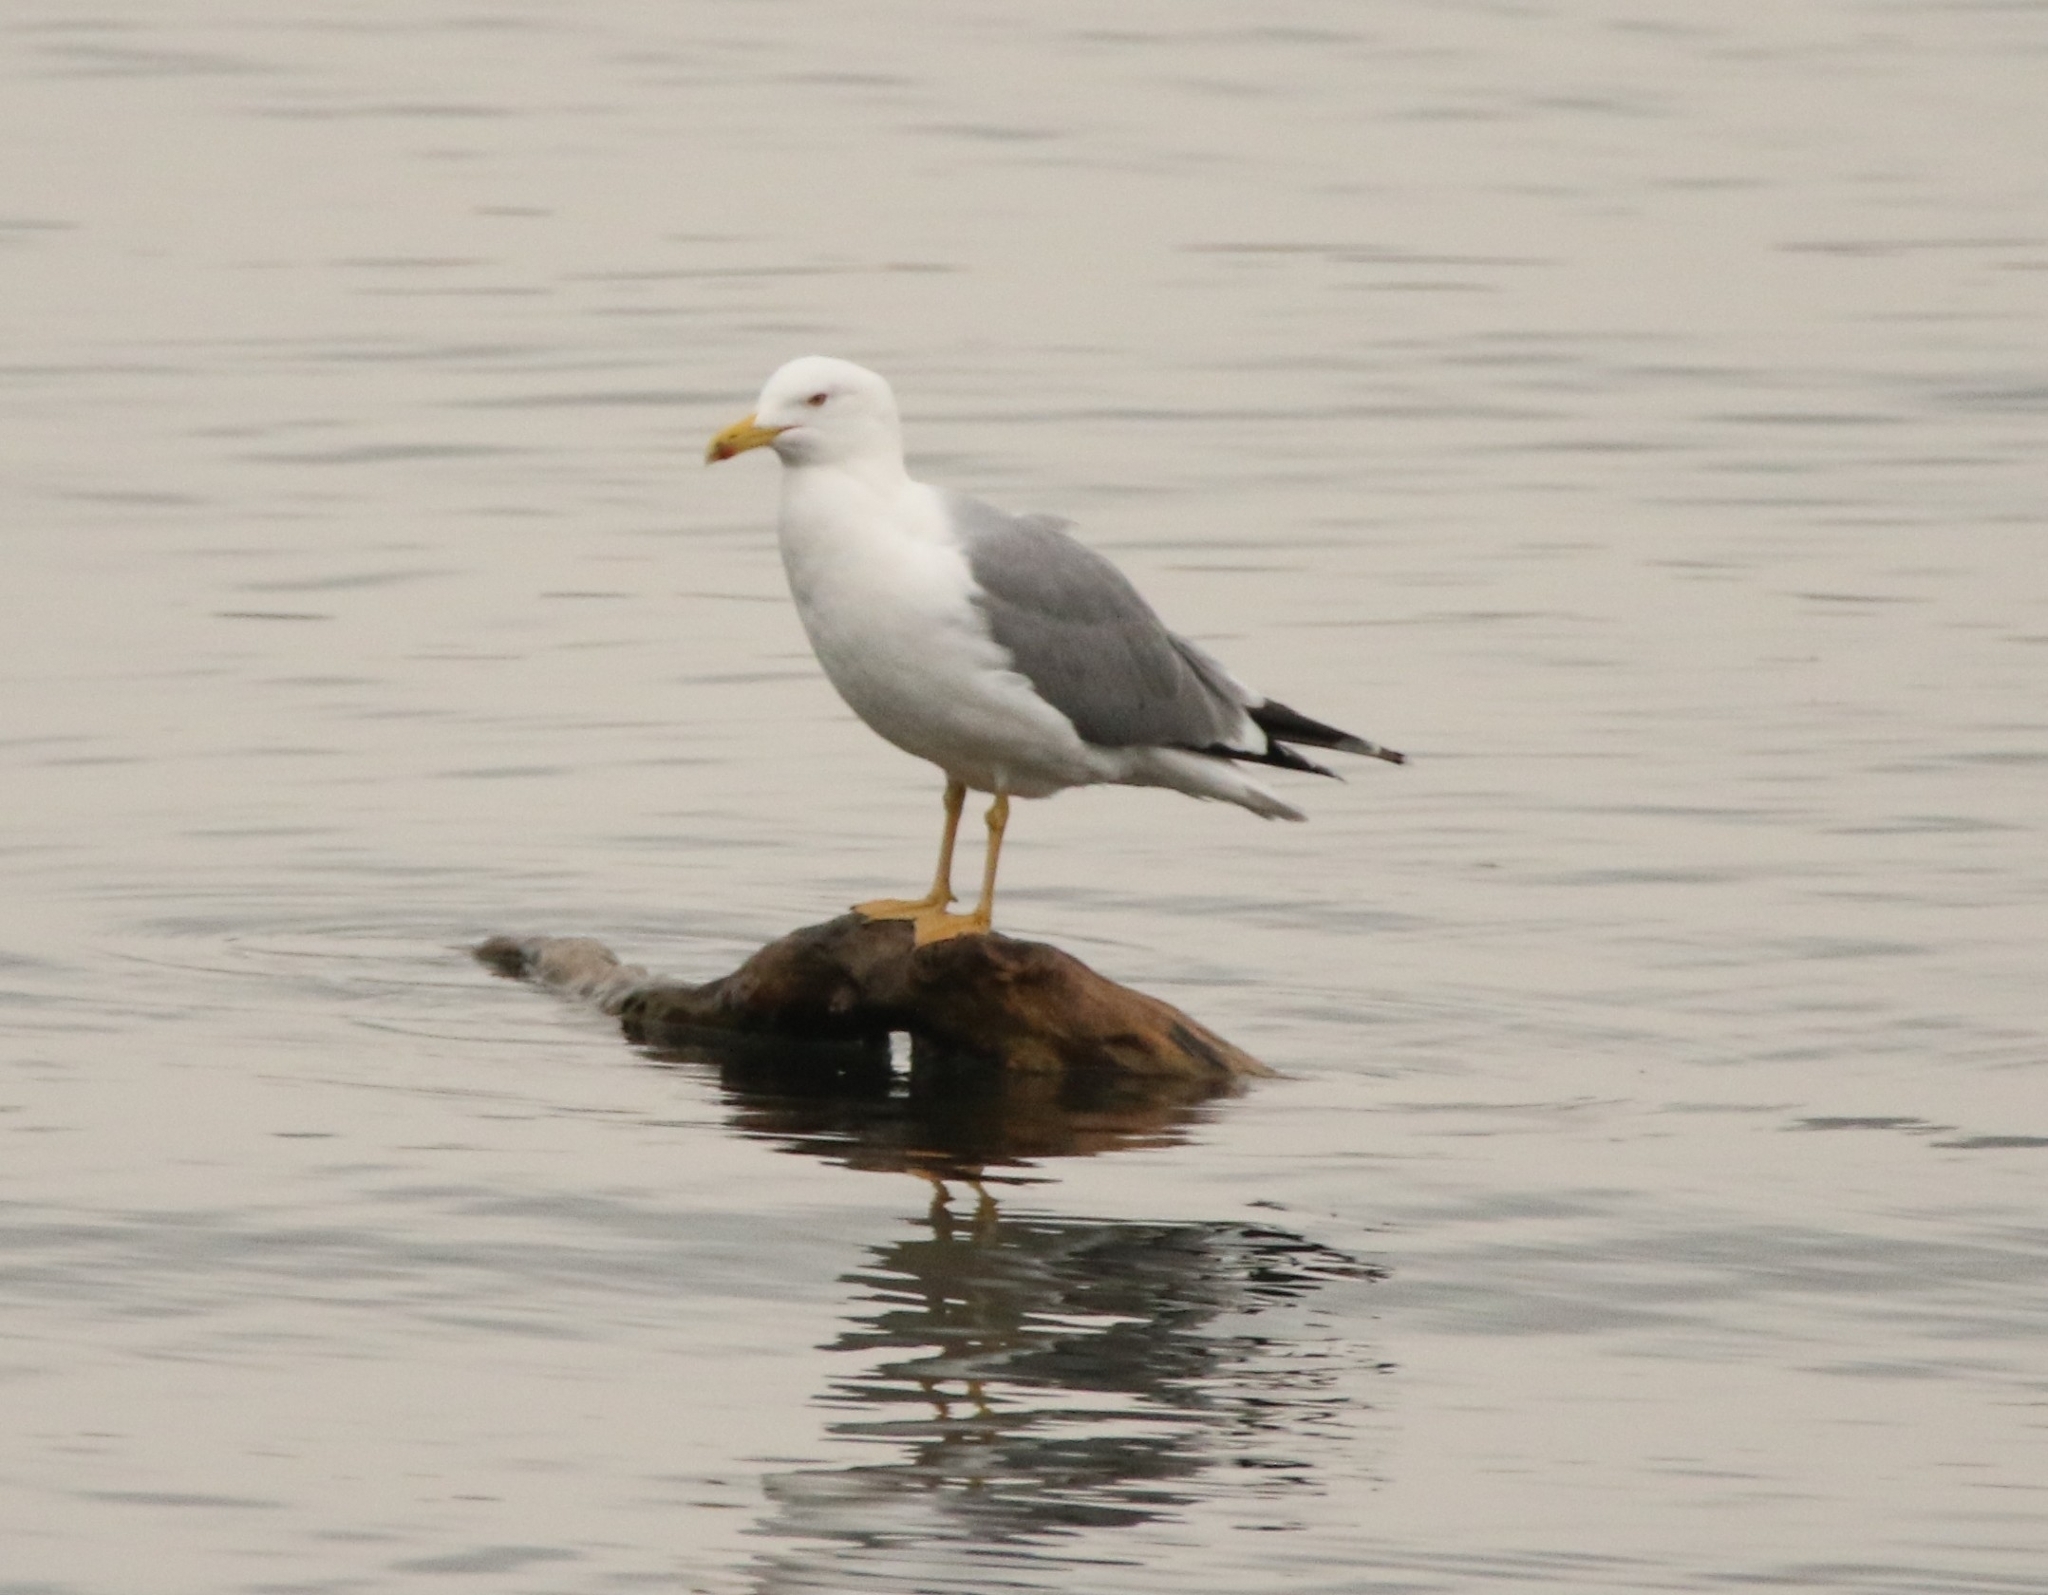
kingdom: Animalia
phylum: Chordata
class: Aves
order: Charadriiformes
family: Laridae
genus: Larus
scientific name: Larus michahellis
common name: Yellow-legged gull
